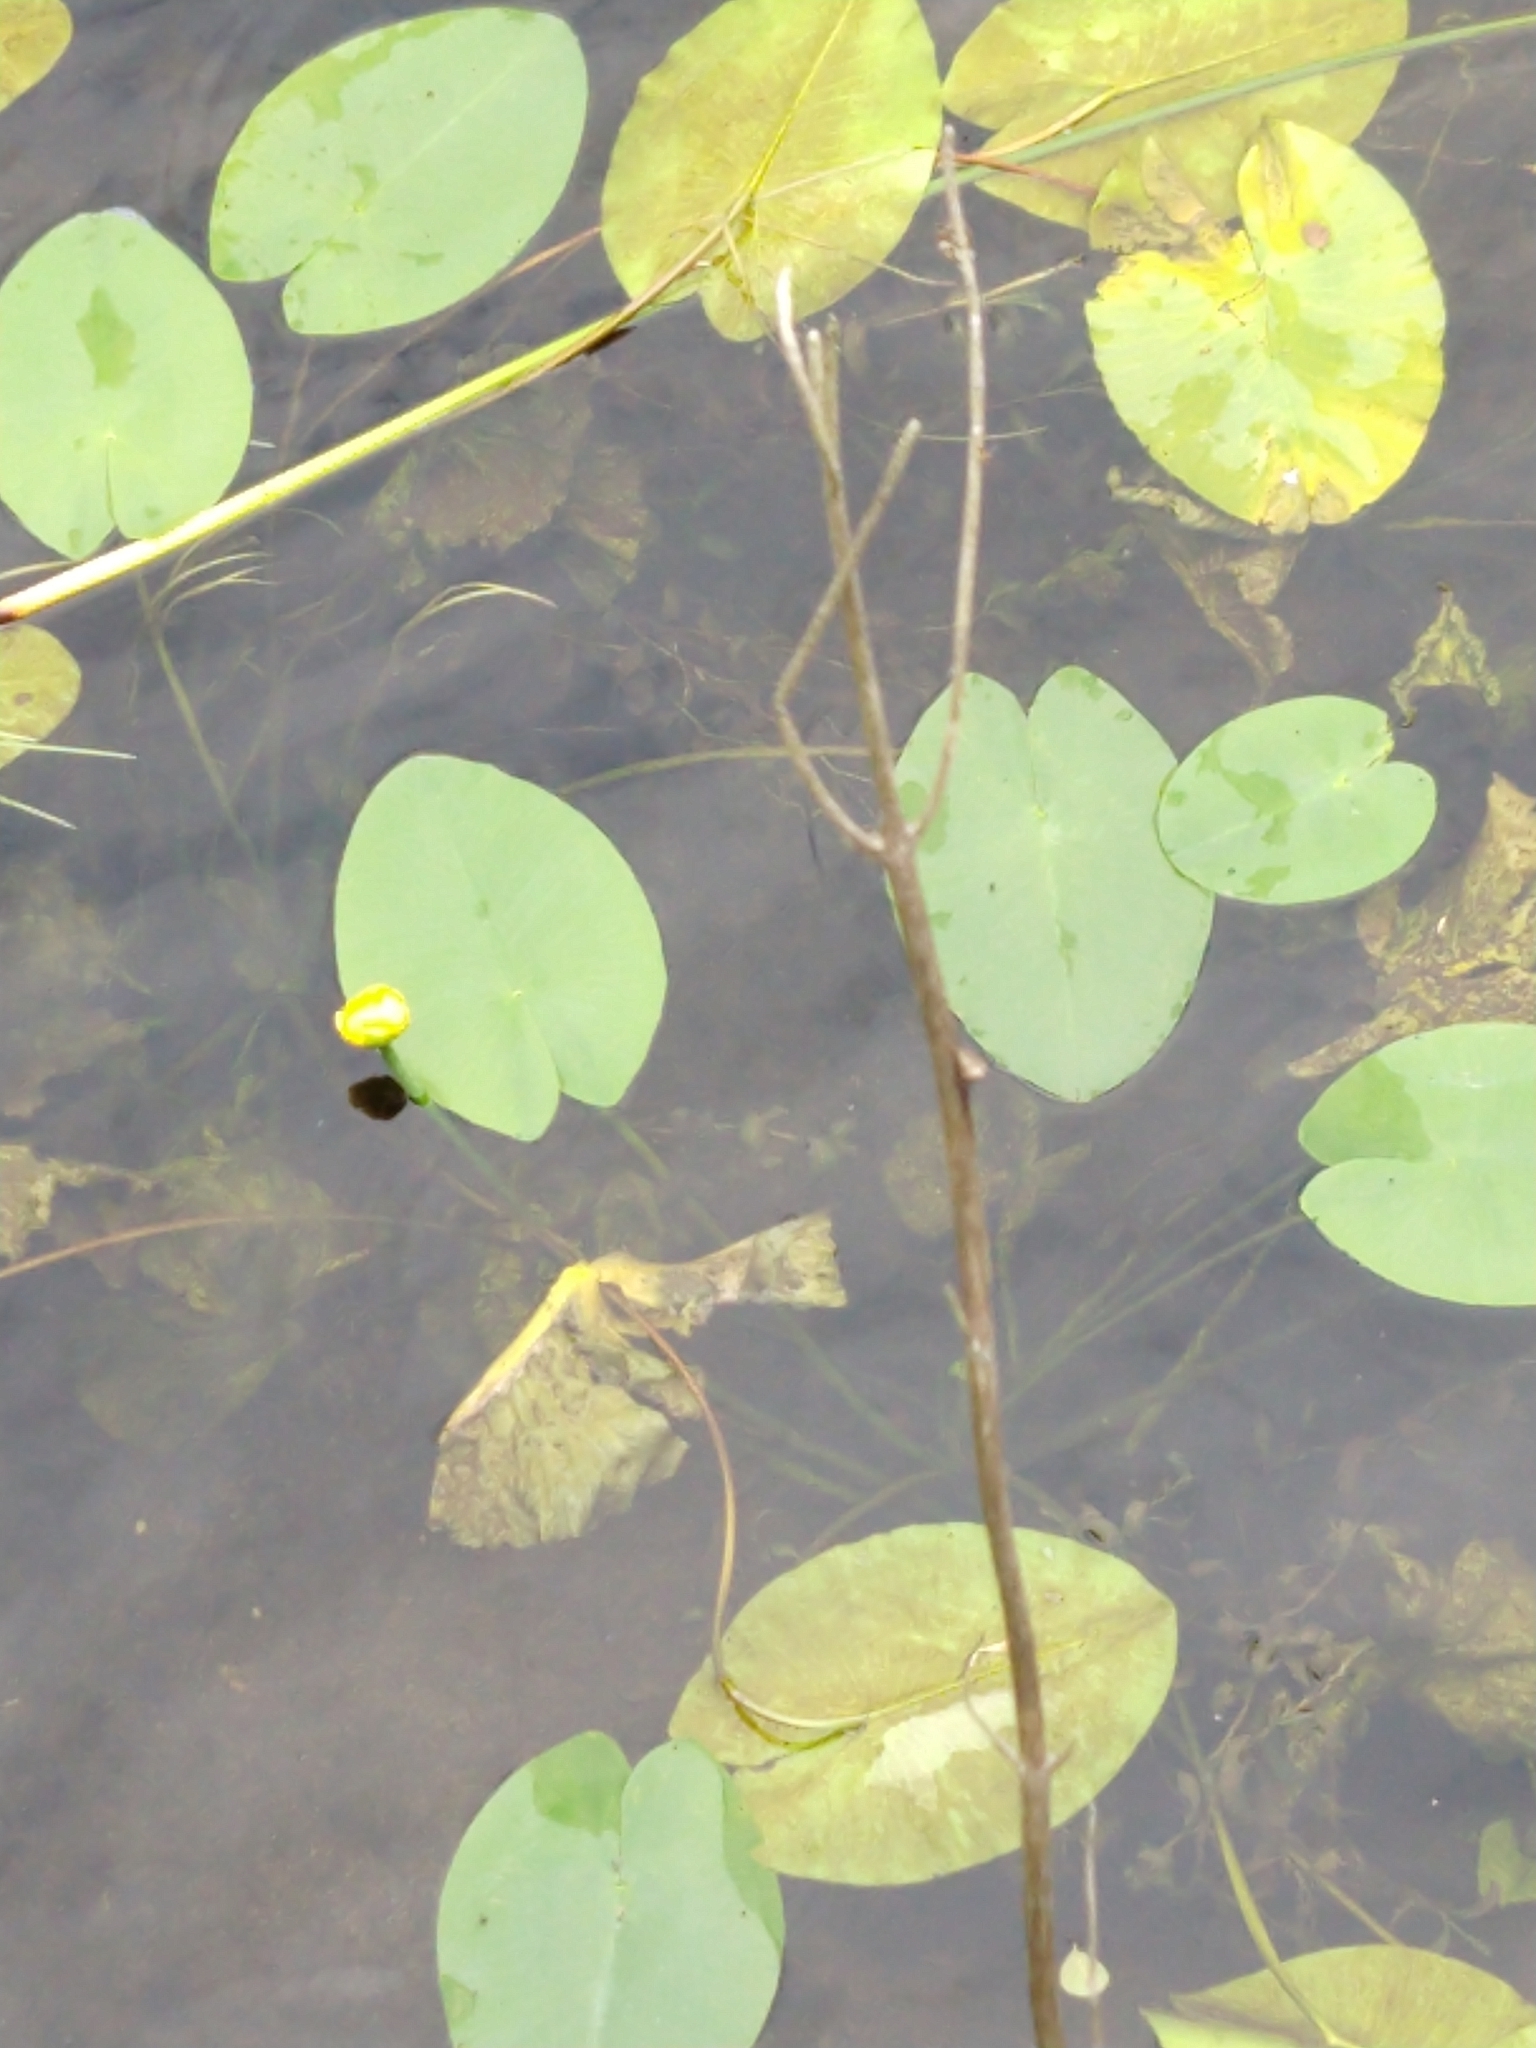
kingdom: Plantae
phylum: Tracheophyta
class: Magnoliopsida
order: Nymphaeales
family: Nymphaeaceae
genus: Nuphar
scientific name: Nuphar lutea
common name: Yellow water-lily
